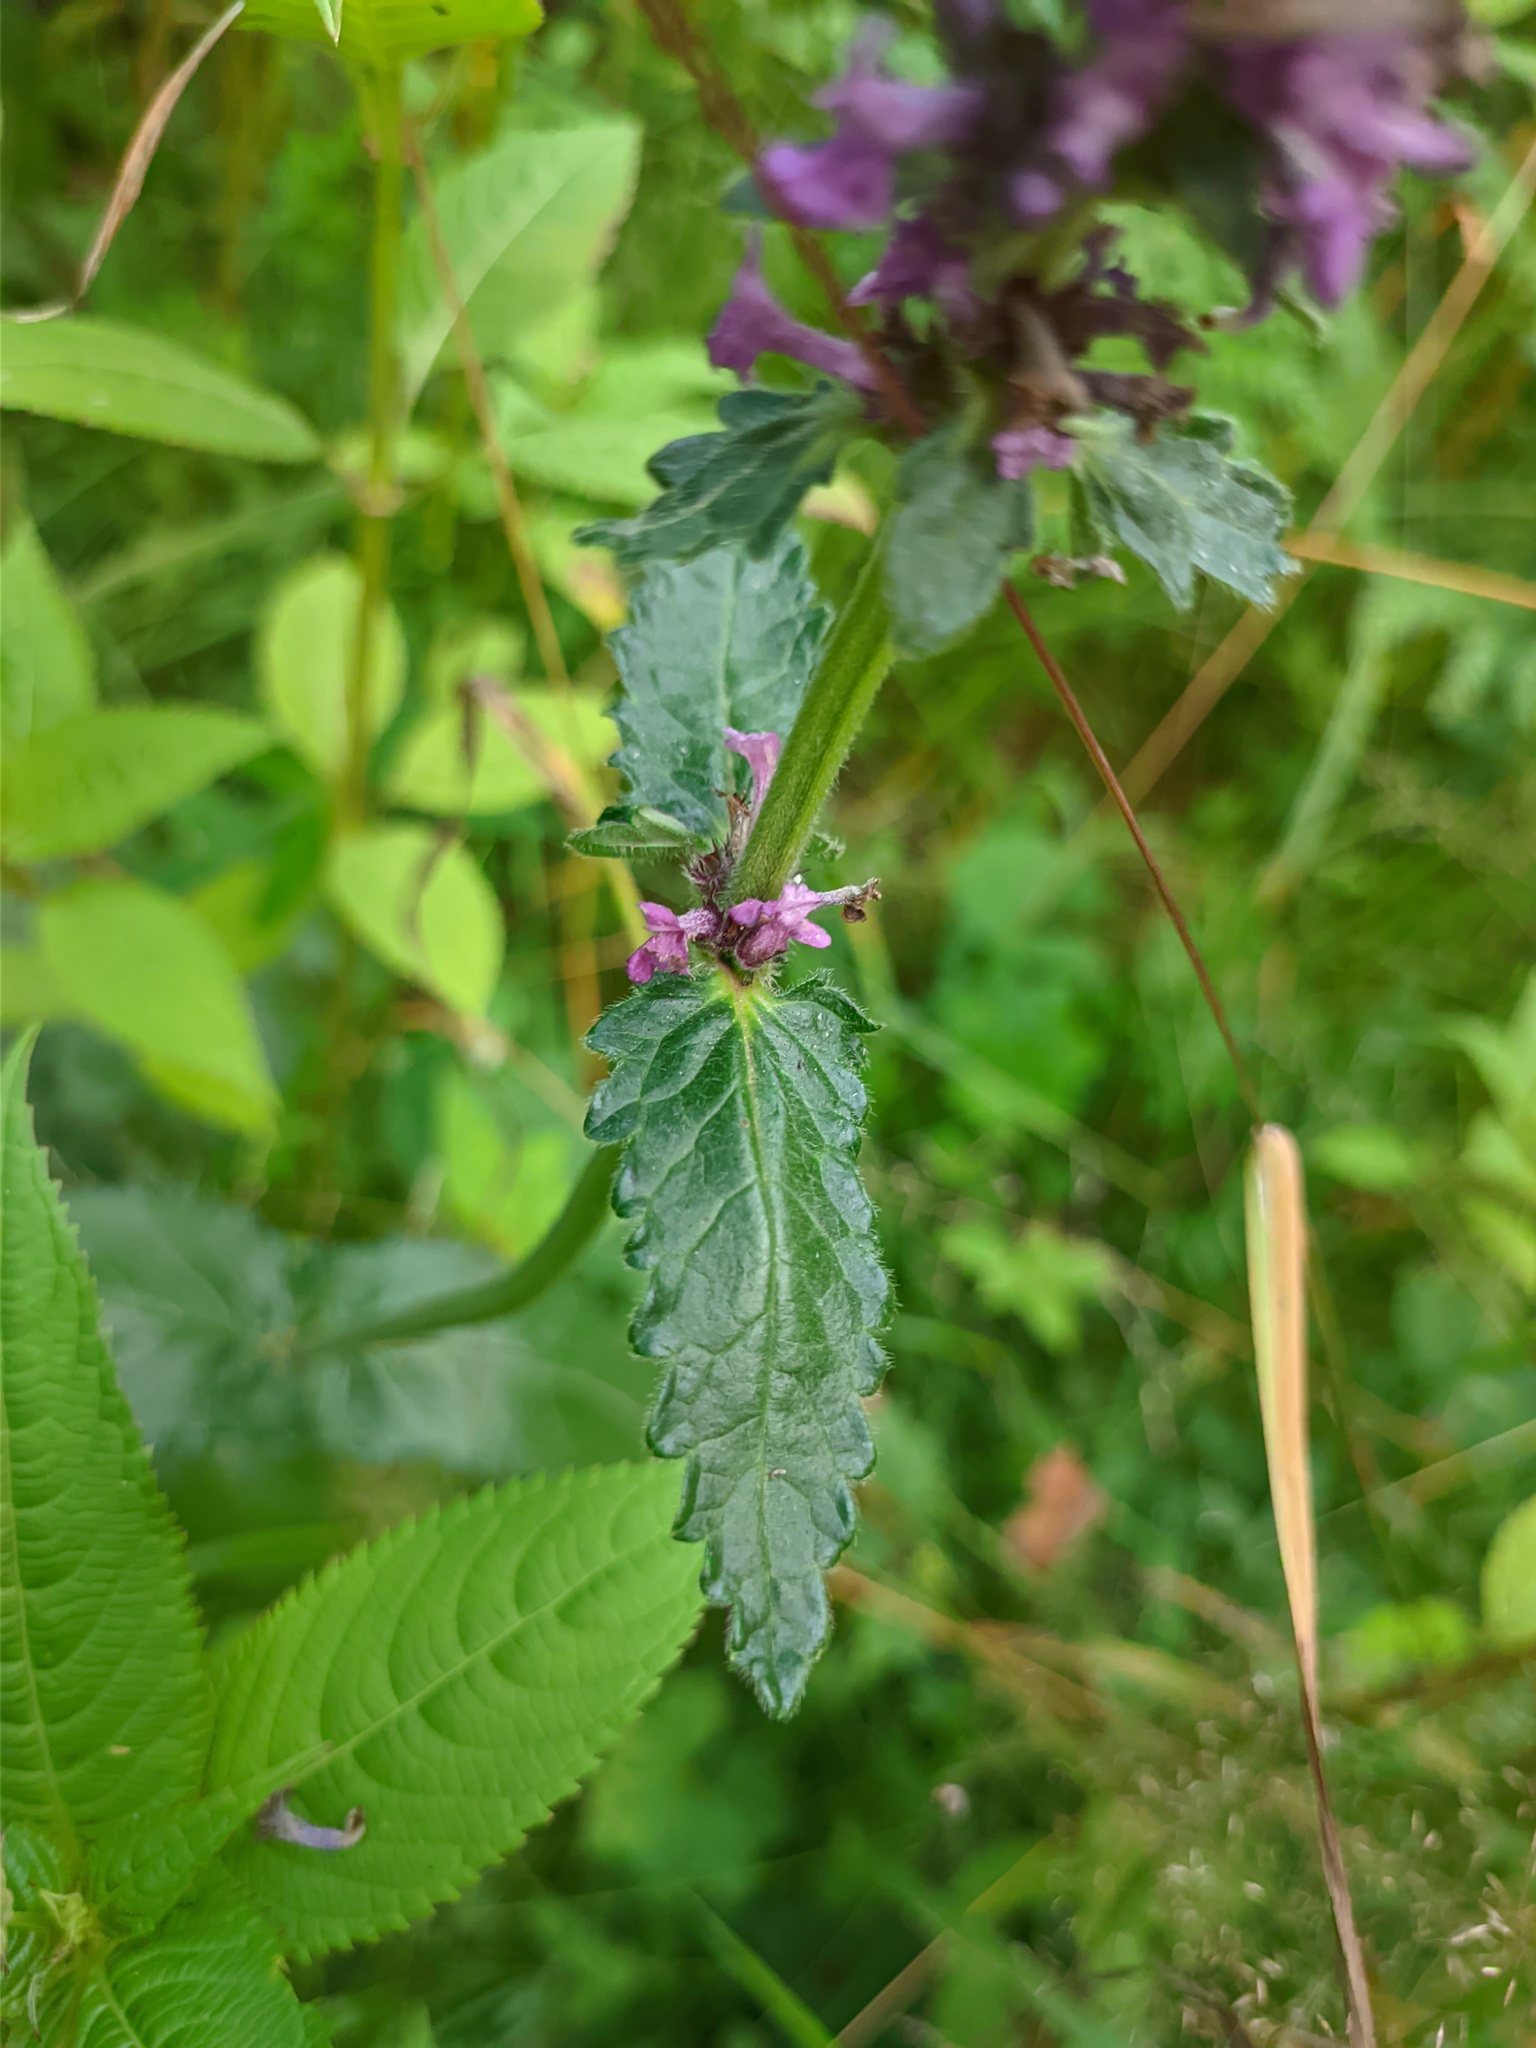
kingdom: Plantae
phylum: Tracheophyta
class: Magnoliopsida
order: Lamiales
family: Lamiaceae
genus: Betonica
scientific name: Betonica officinalis
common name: Bishop's-wort
